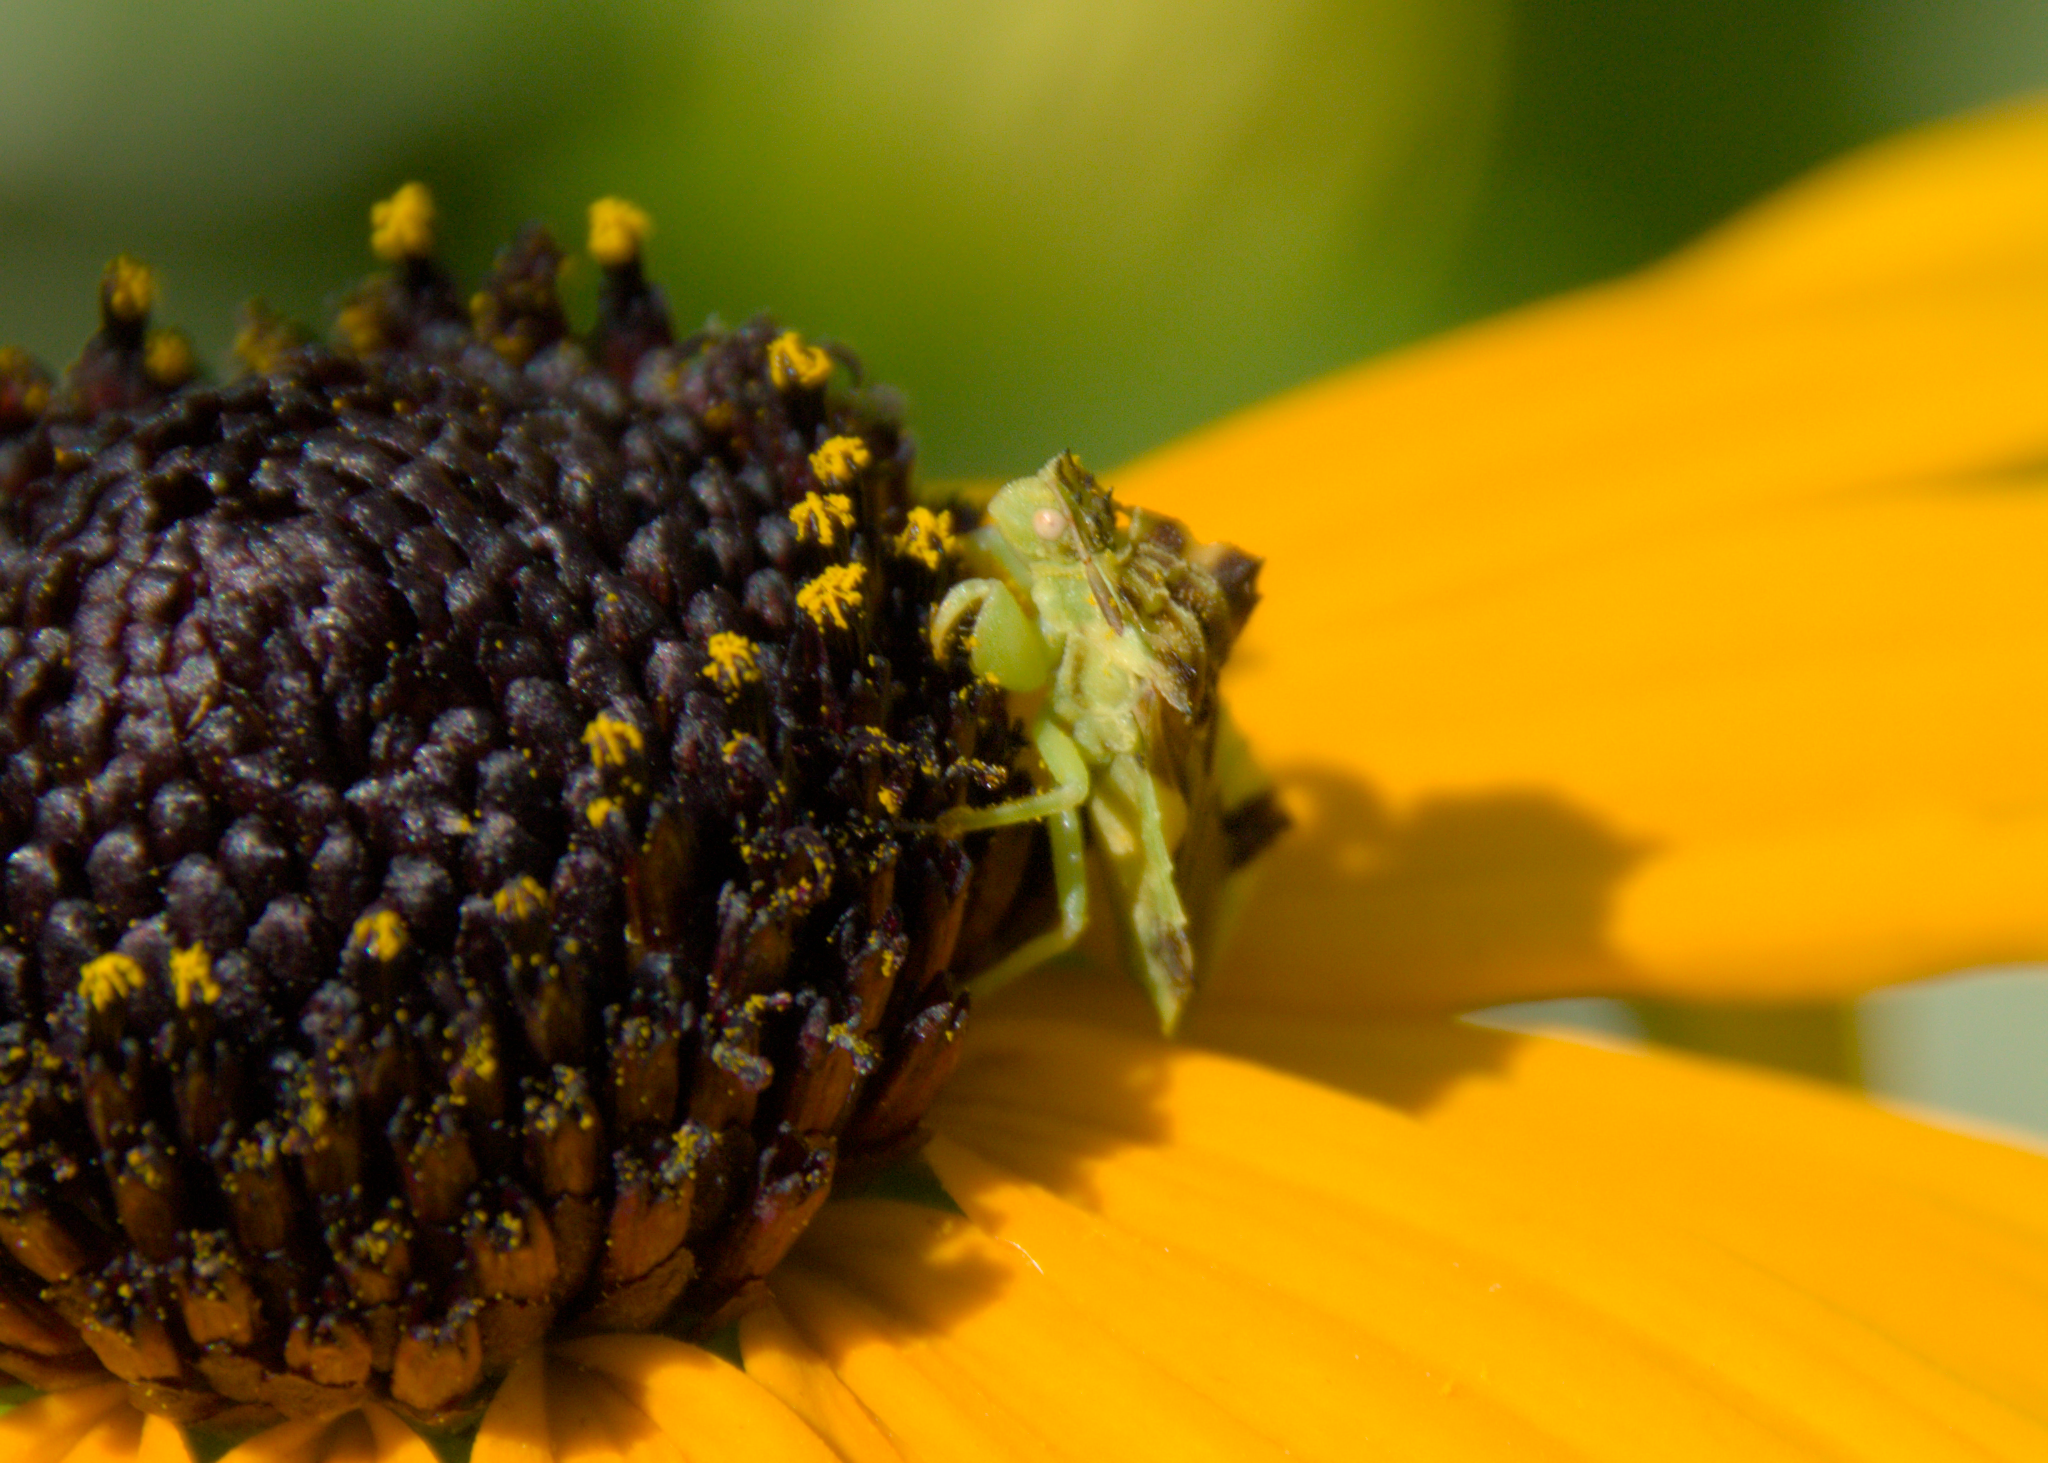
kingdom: Animalia
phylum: Arthropoda
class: Insecta
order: Hemiptera
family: Reduviidae
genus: Phymata
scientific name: Phymata americana
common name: Jagged ambush bug
